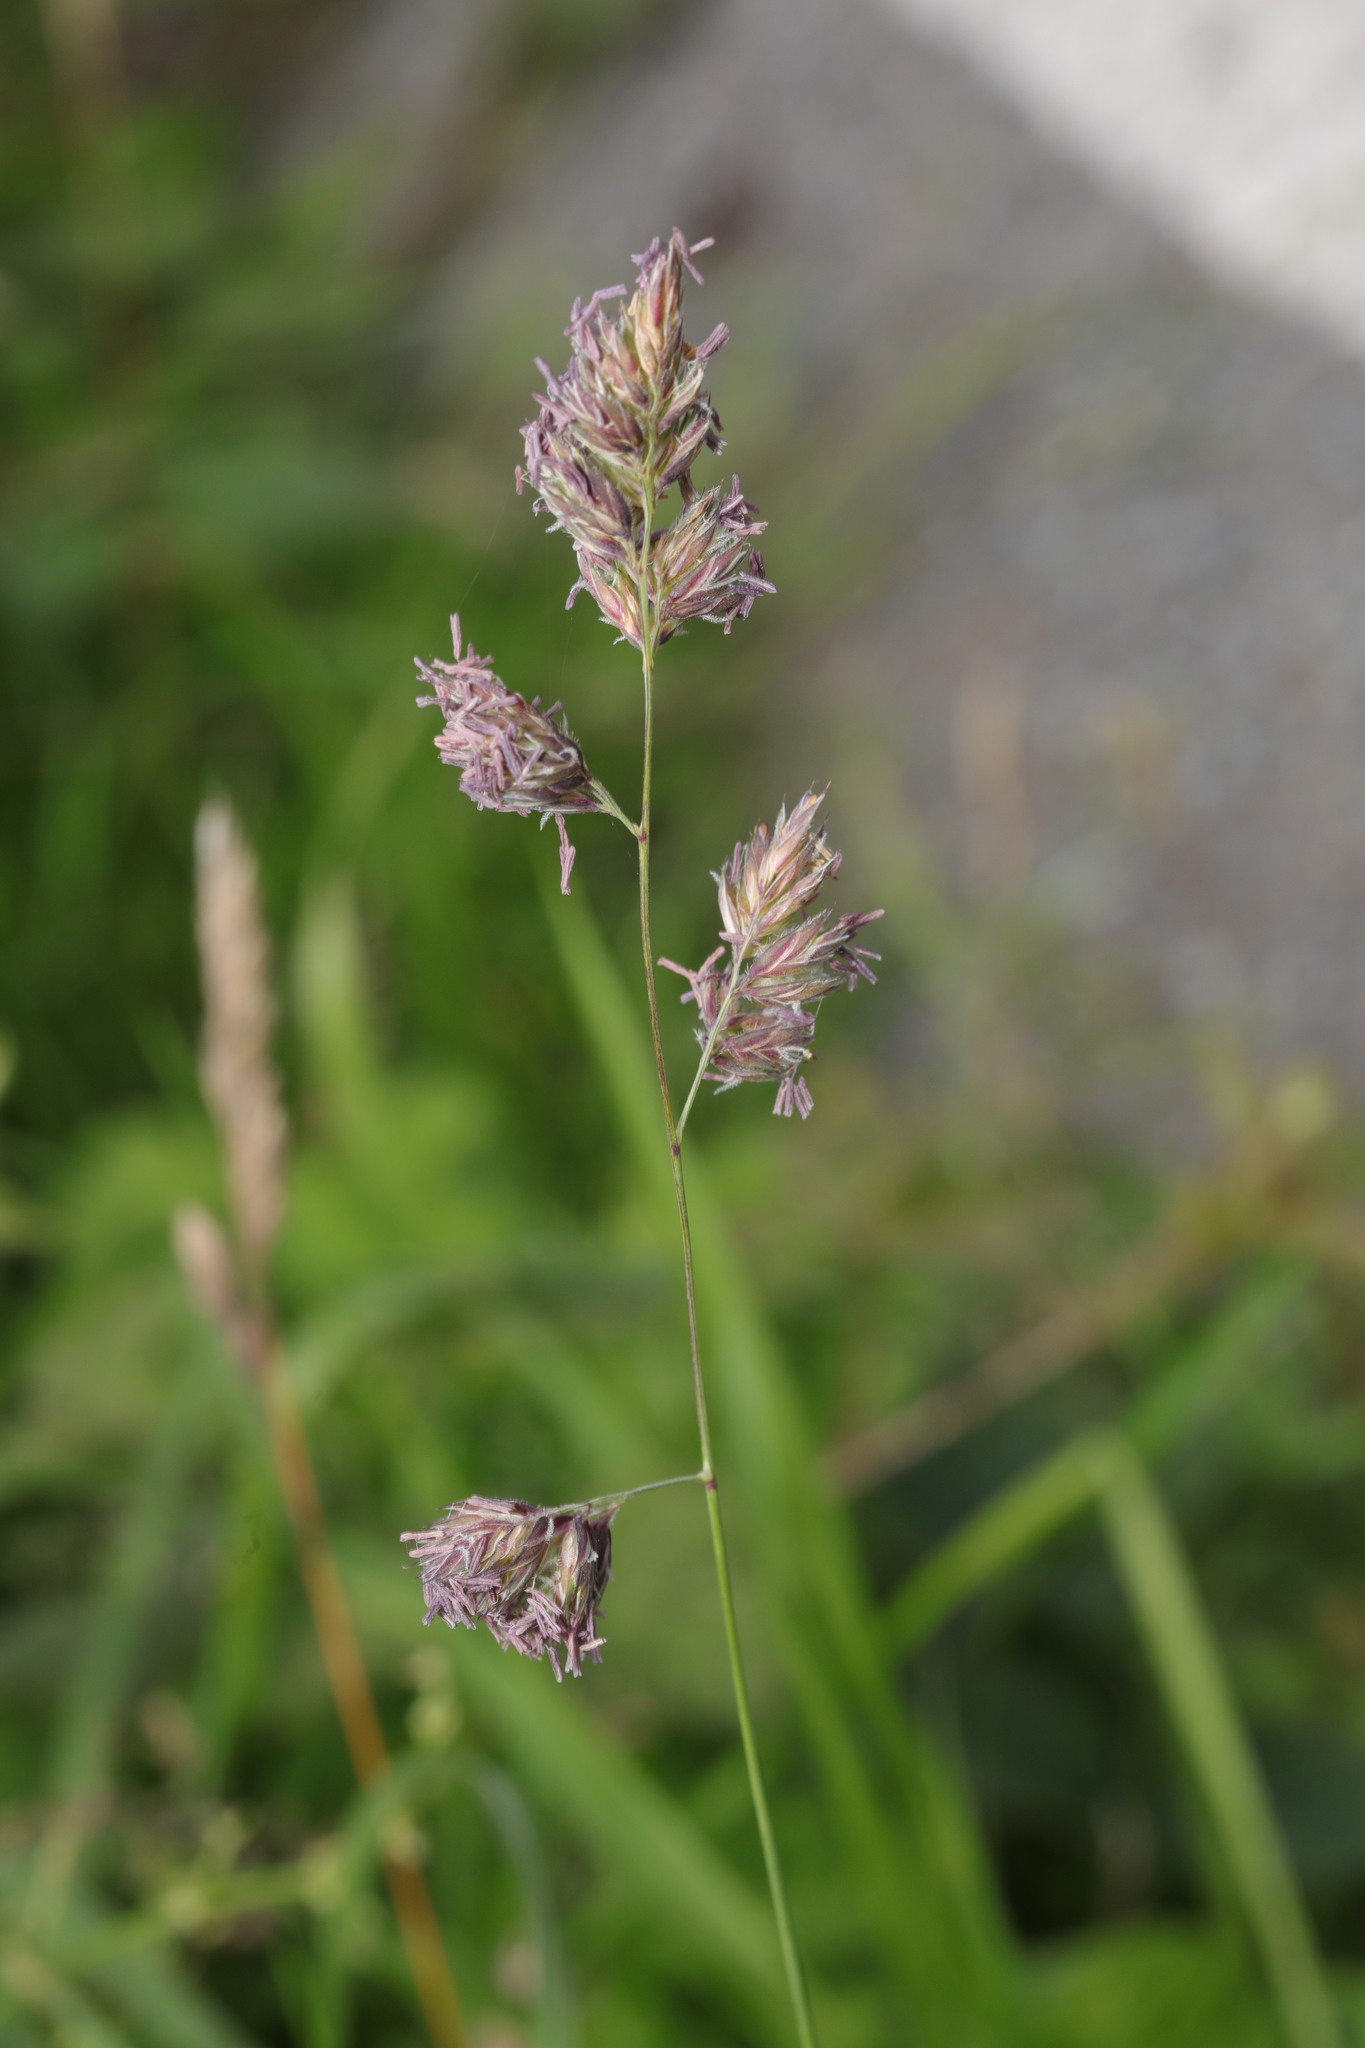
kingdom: Plantae
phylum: Tracheophyta
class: Liliopsida
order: Poales
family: Poaceae
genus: Dactylis
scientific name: Dactylis glomerata
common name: Orchardgrass
